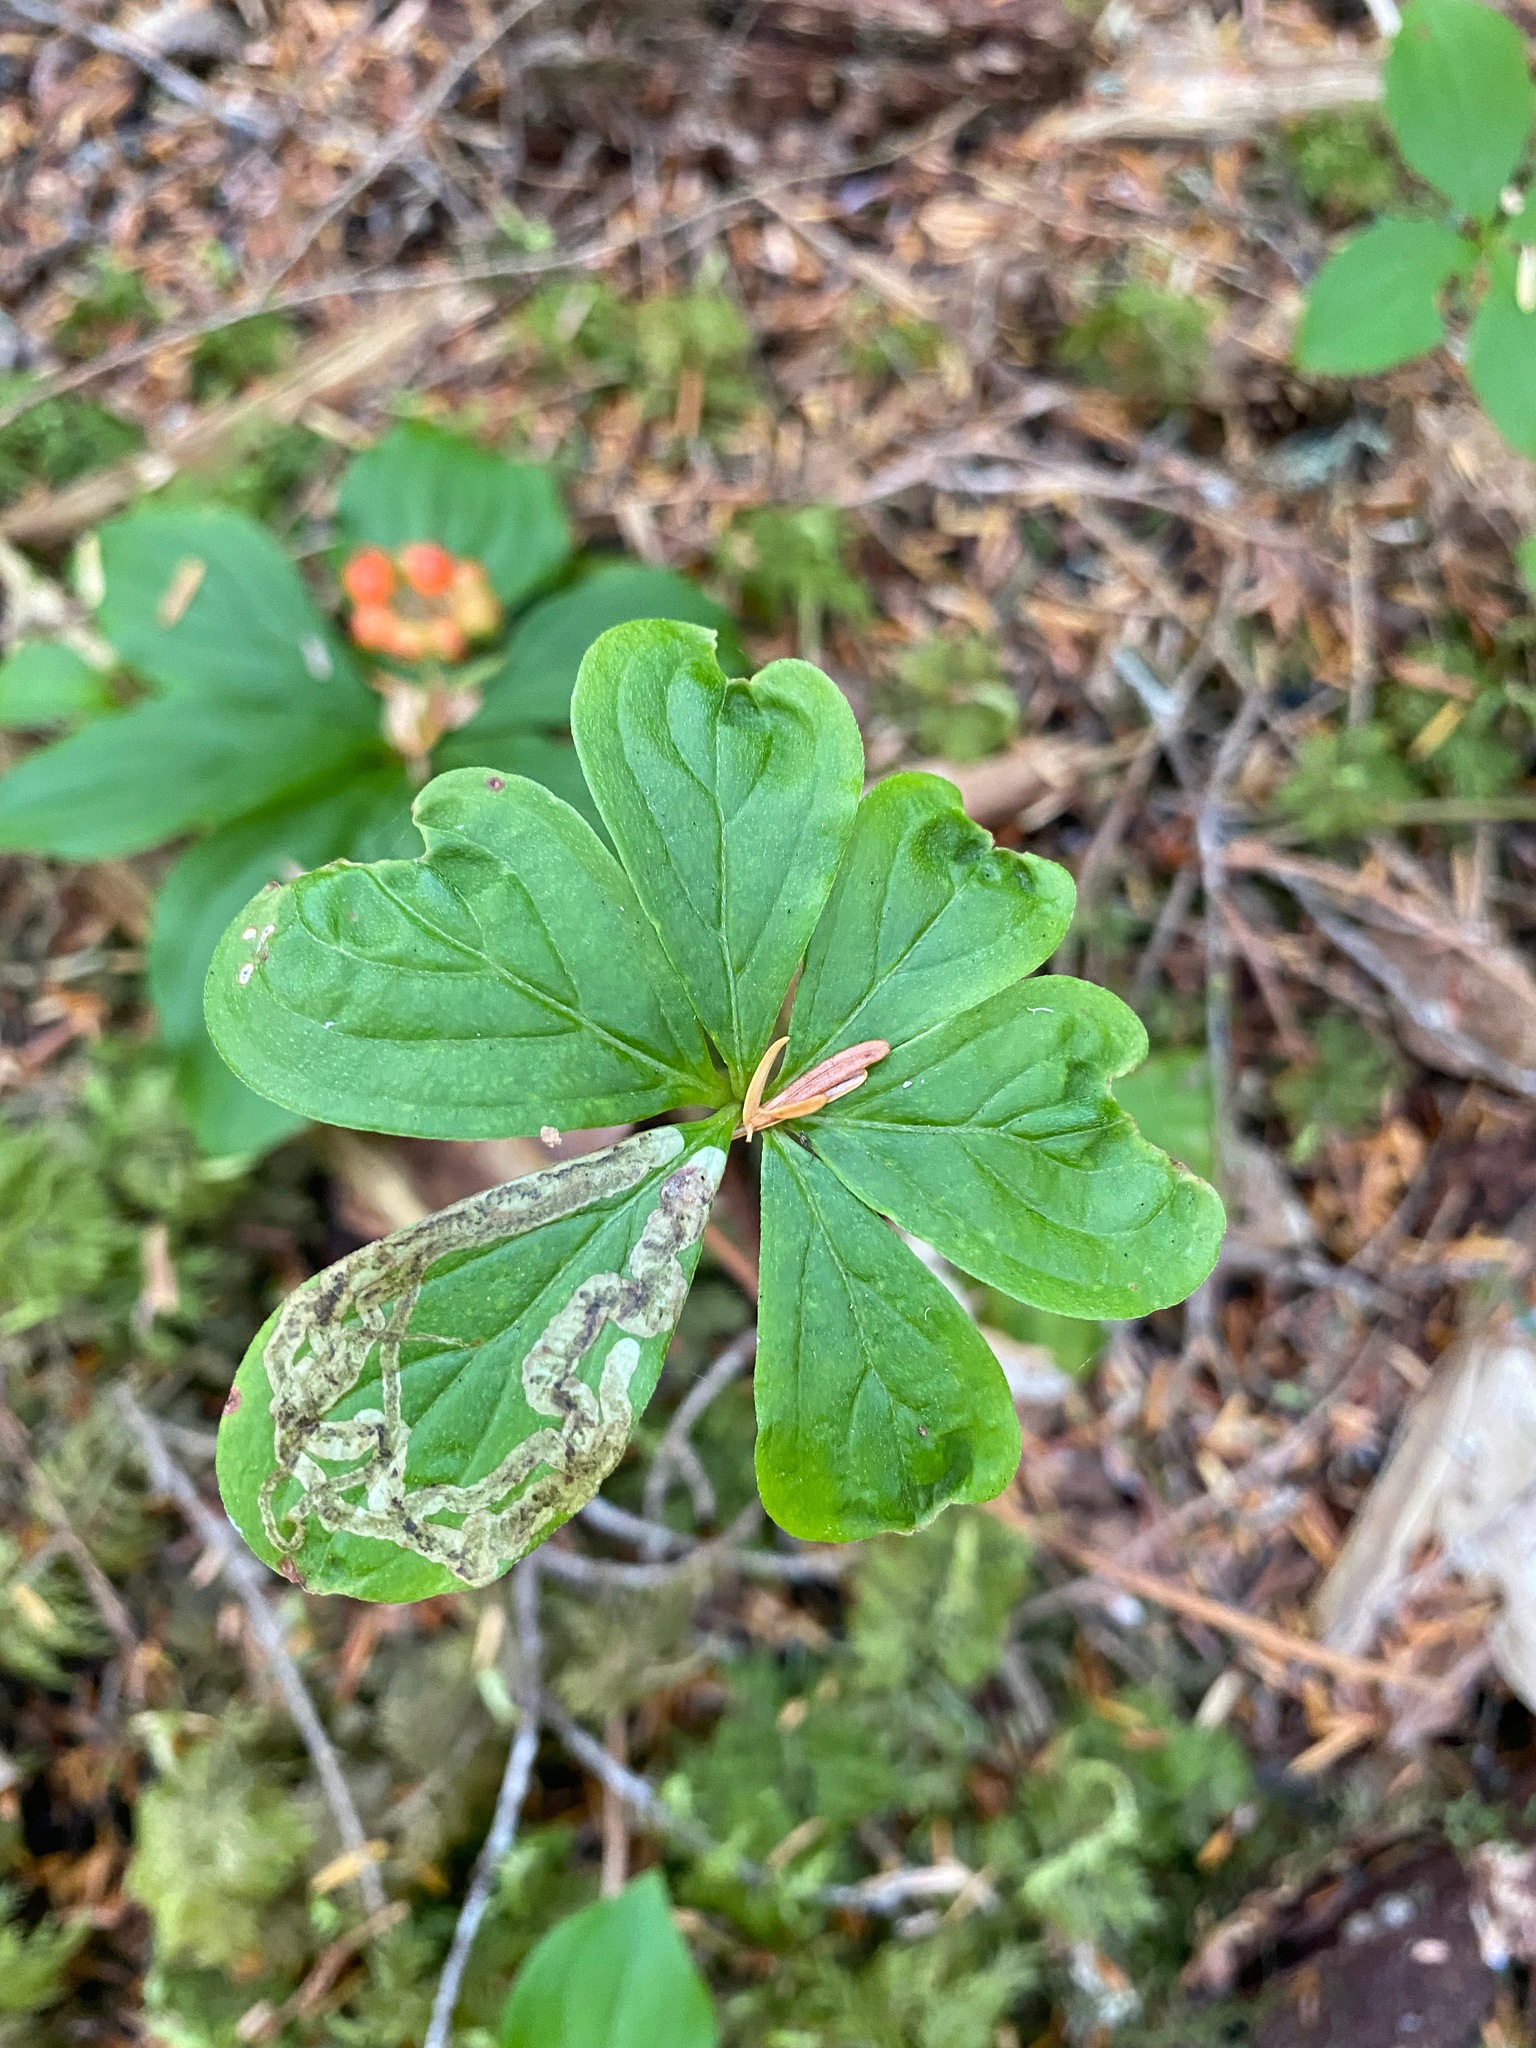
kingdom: Animalia
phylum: Arthropoda
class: Insecta
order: Diptera
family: Agromyzidae
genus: Phytomyza
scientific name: Phytomyza agromyzina
